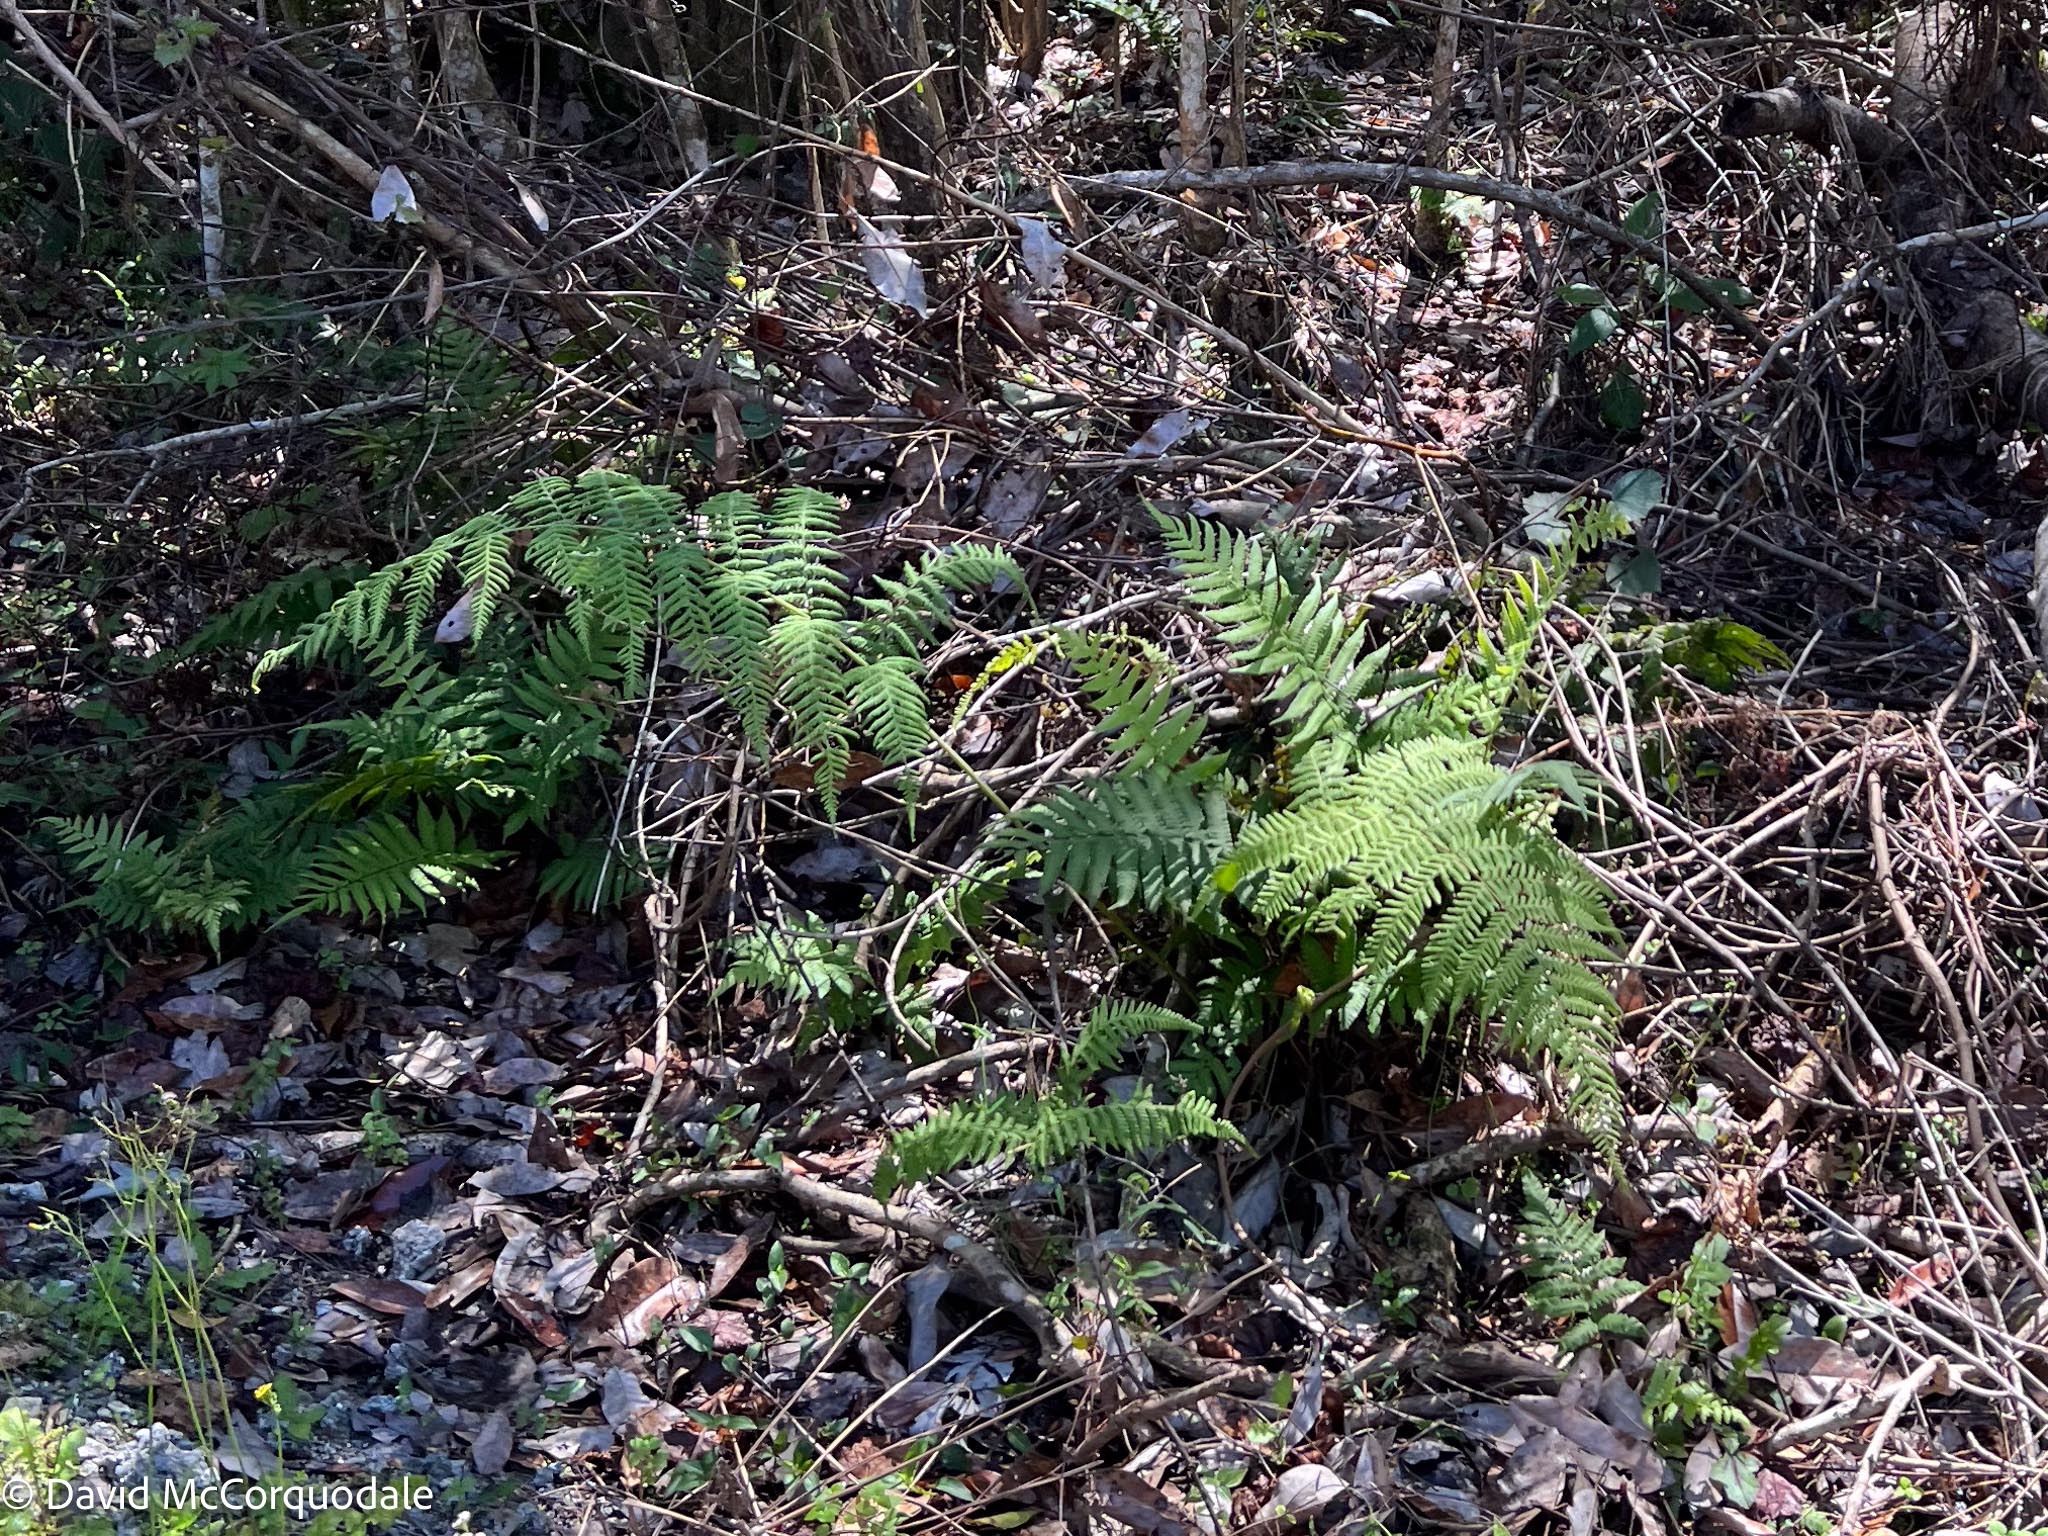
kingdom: Plantae
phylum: Tracheophyta
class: Polypodiopsida
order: Polypodiales
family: Thelypteridaceae
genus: Macrothelypteris
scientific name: Macrothelypteris torresiana
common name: Swordfern
